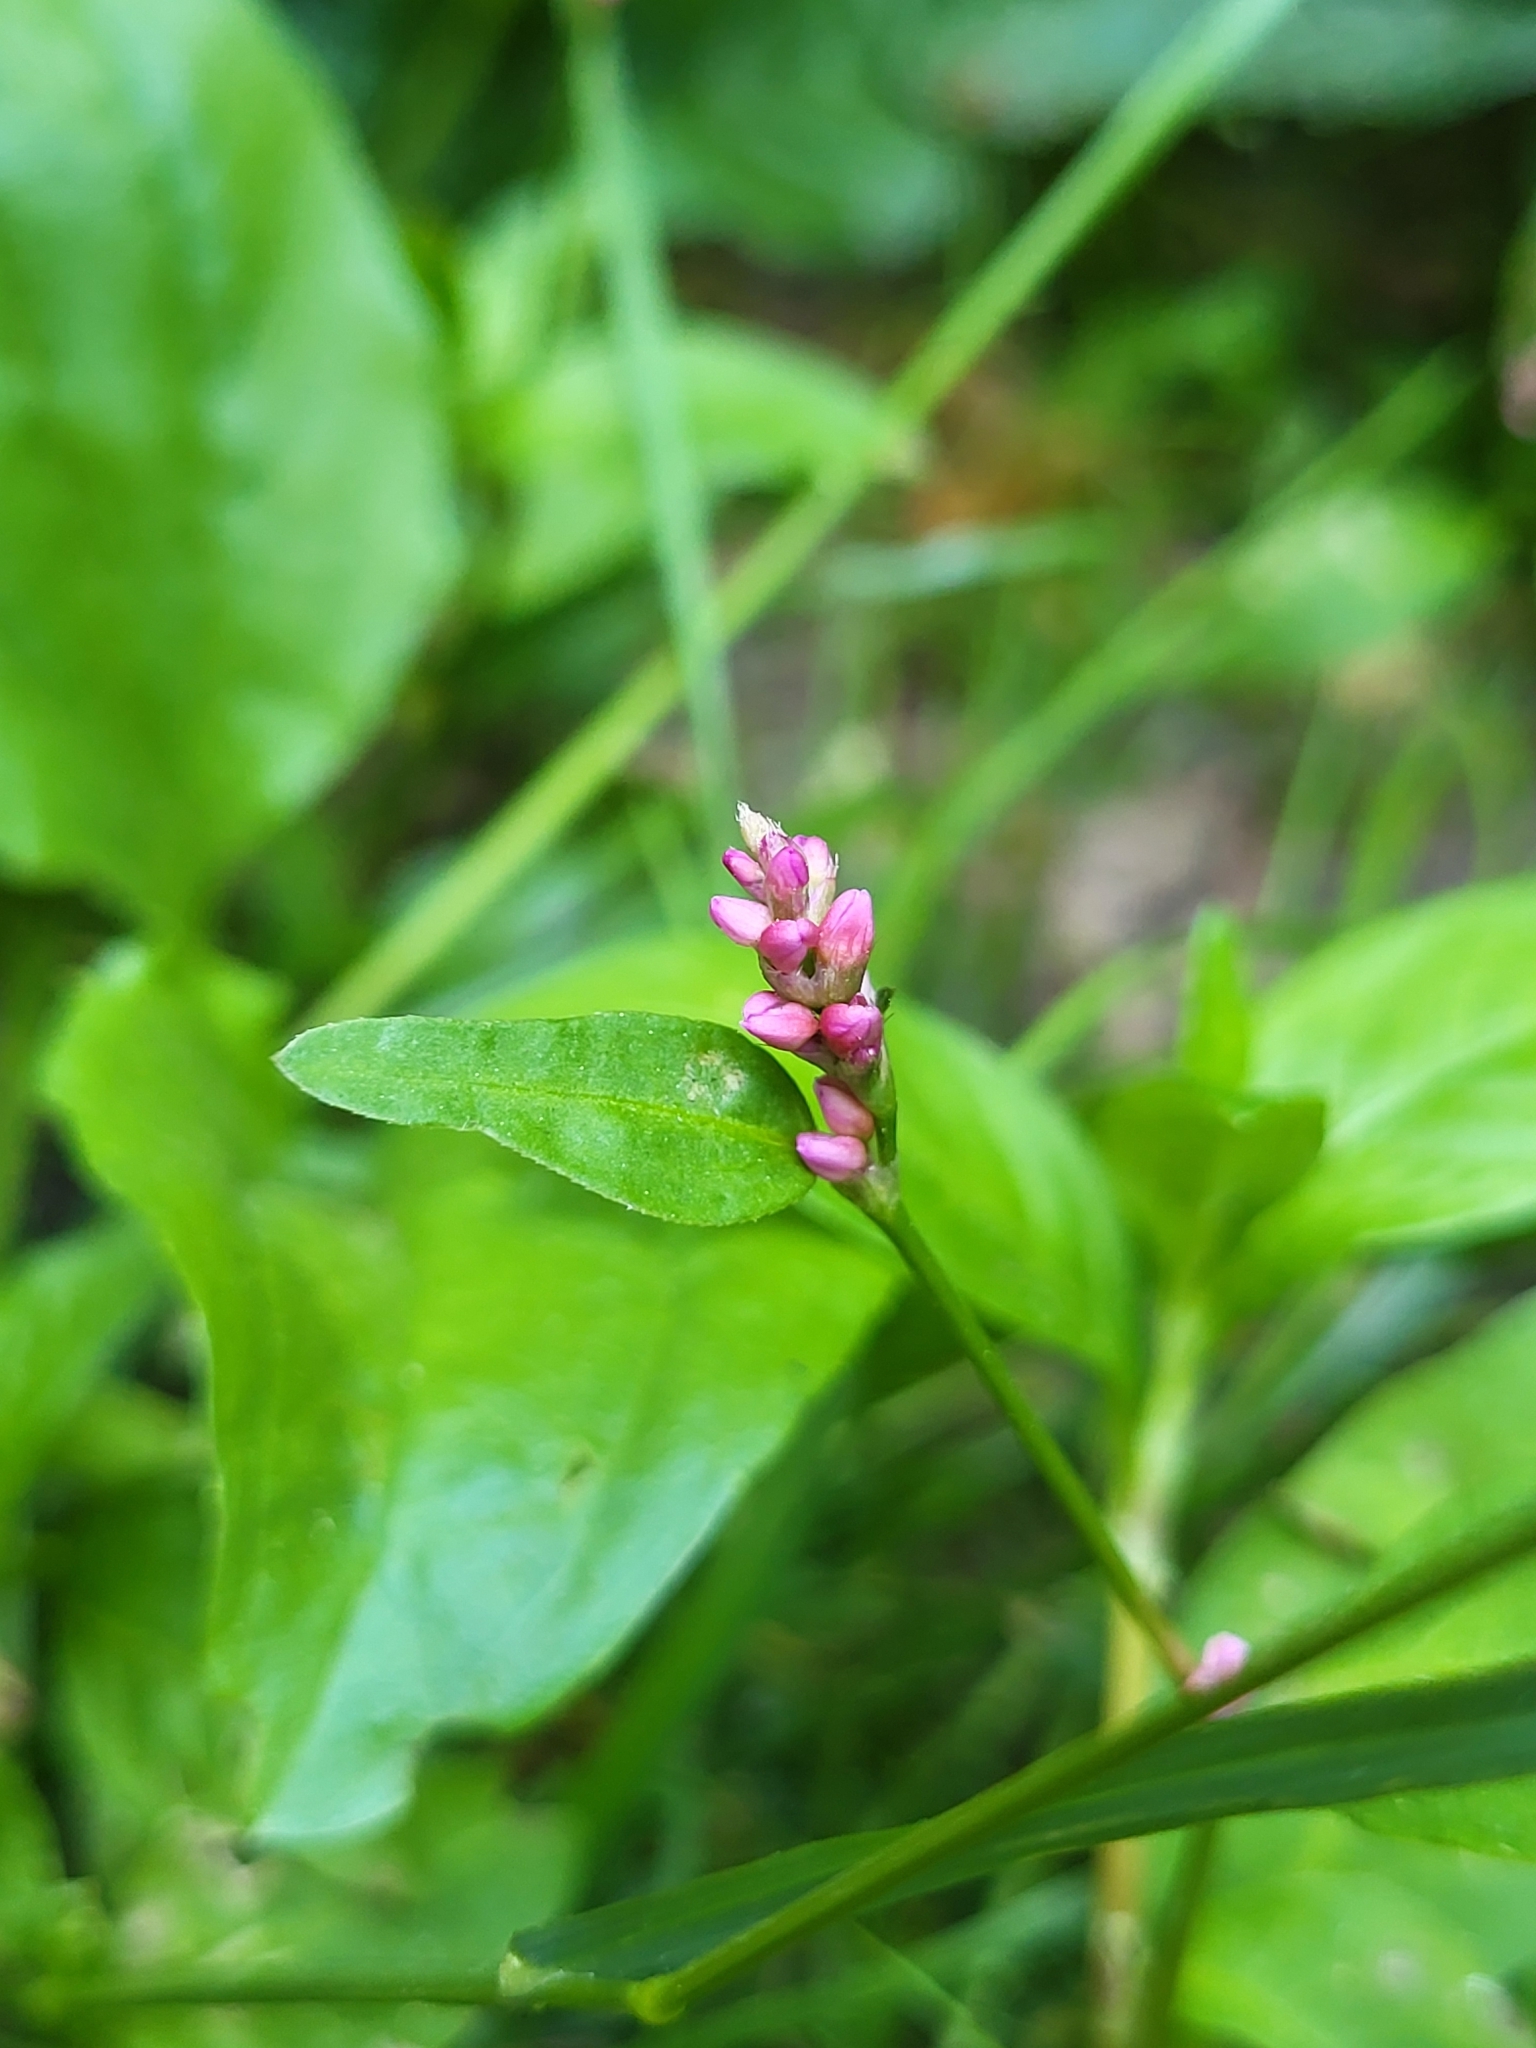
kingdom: Plantae
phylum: Tracheophyta
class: Magnoliopsida
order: Caryophyllales
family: Polygonaceae
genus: Persicaria
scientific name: Persicaria longiseta
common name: Bristly lady's-thumb
